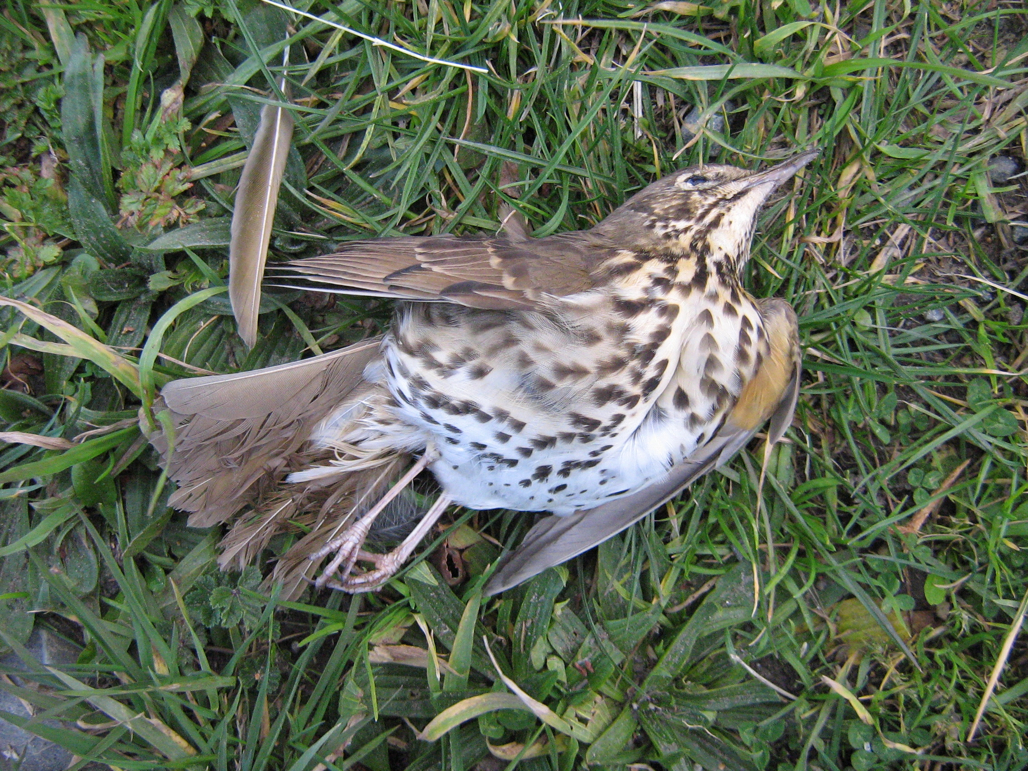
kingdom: Animalia
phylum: Chordata
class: Aves
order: Passeriformes
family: Turdidae
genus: Turdus
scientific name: Turdus philomelos
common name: Song thrush
